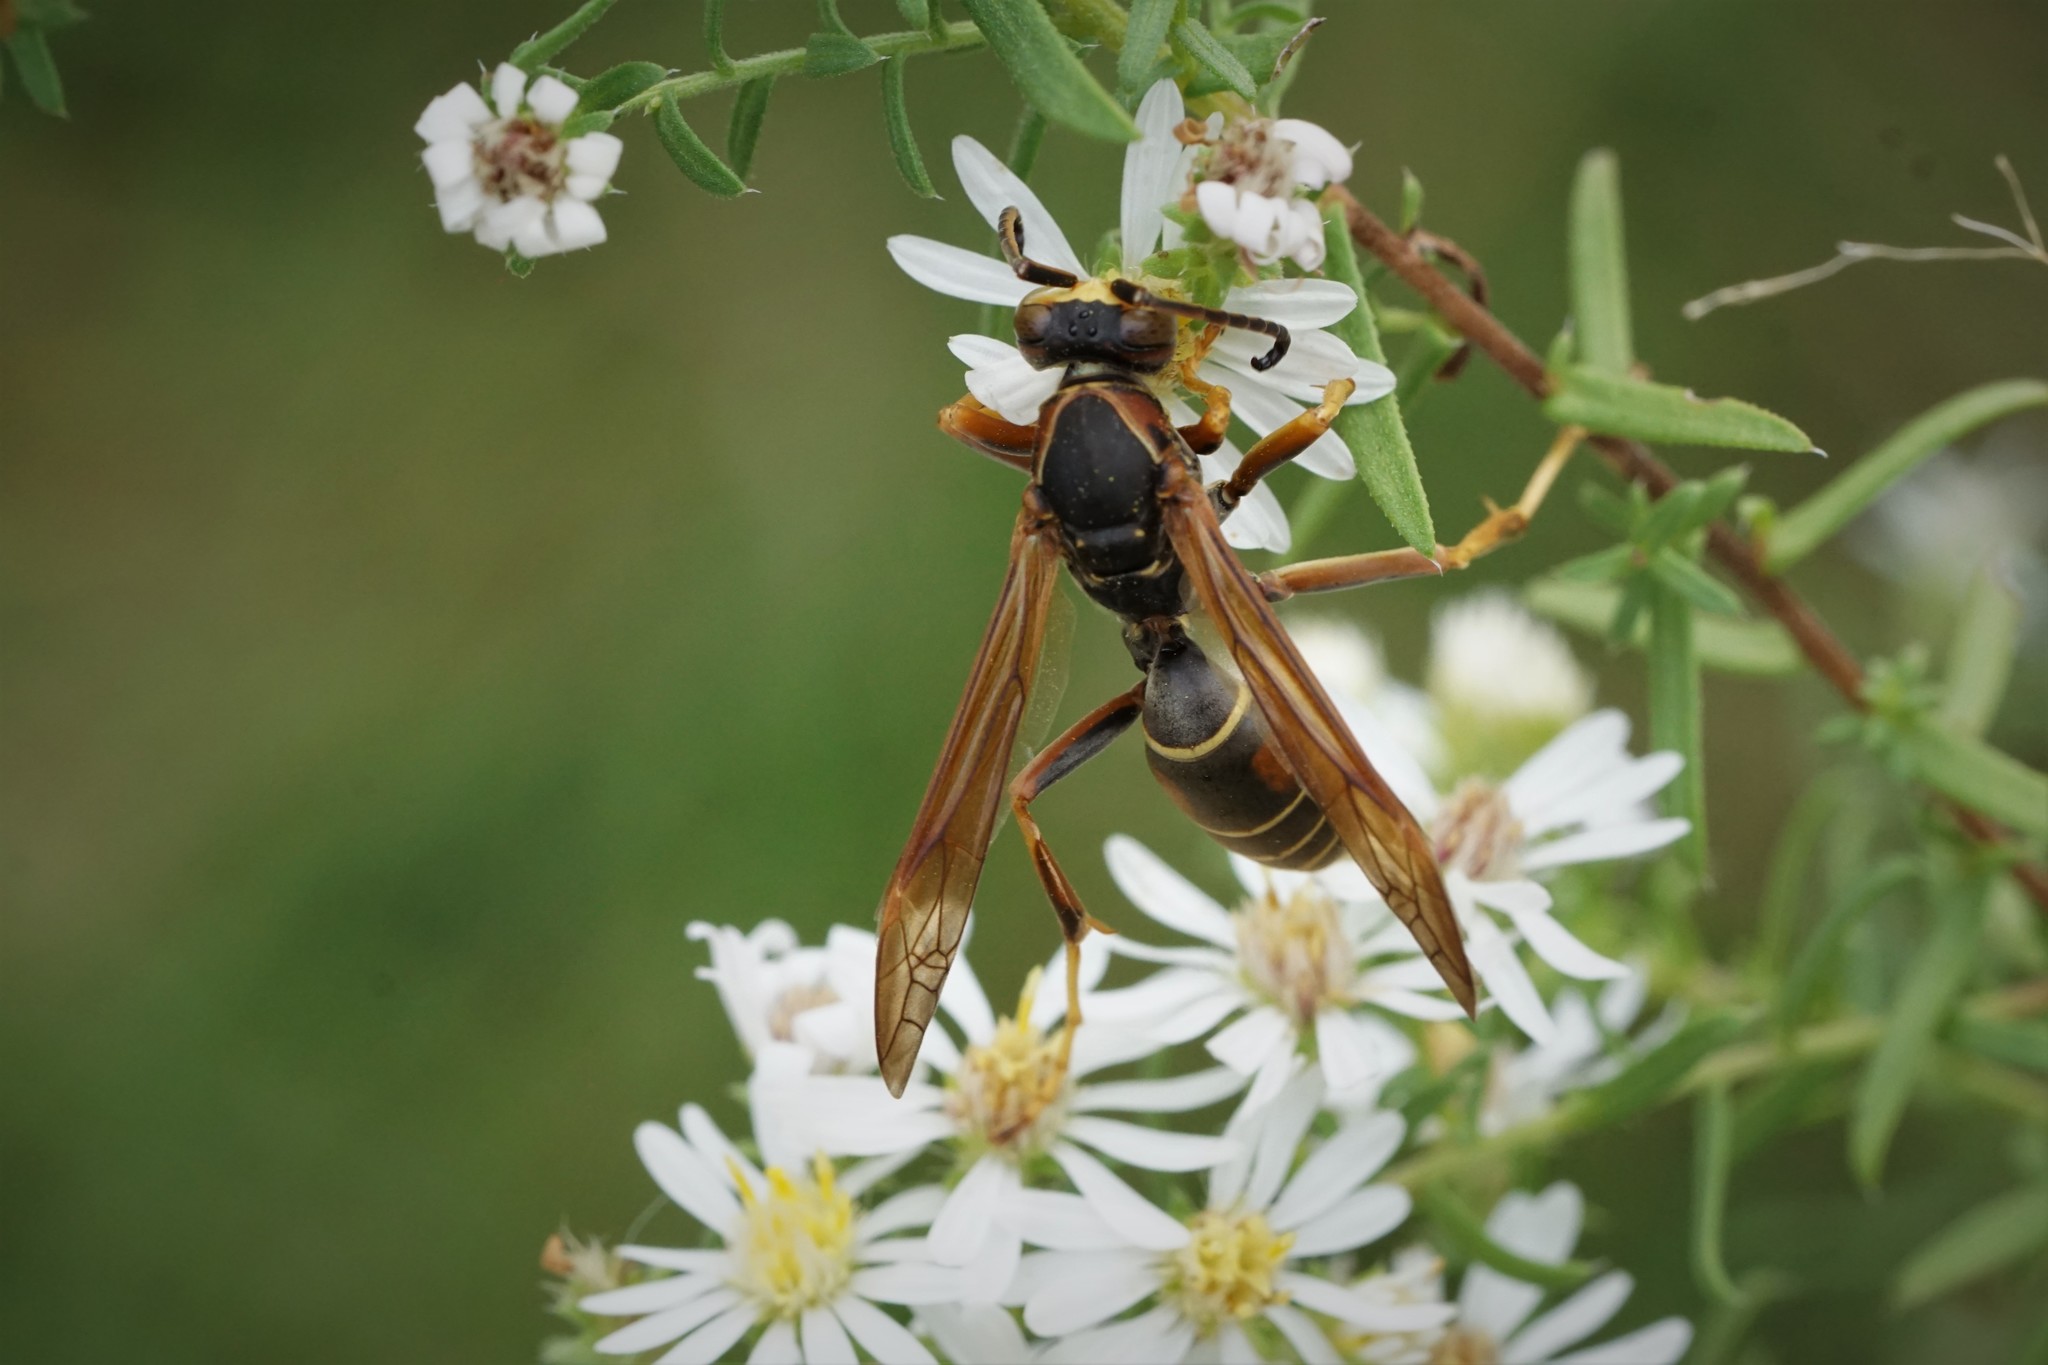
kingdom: Animalia
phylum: Arthropoda
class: Insecta
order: Hymenoptera
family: Eumenidae
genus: Polistes
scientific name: Polistes fuscatus
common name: Dark paper wasp
